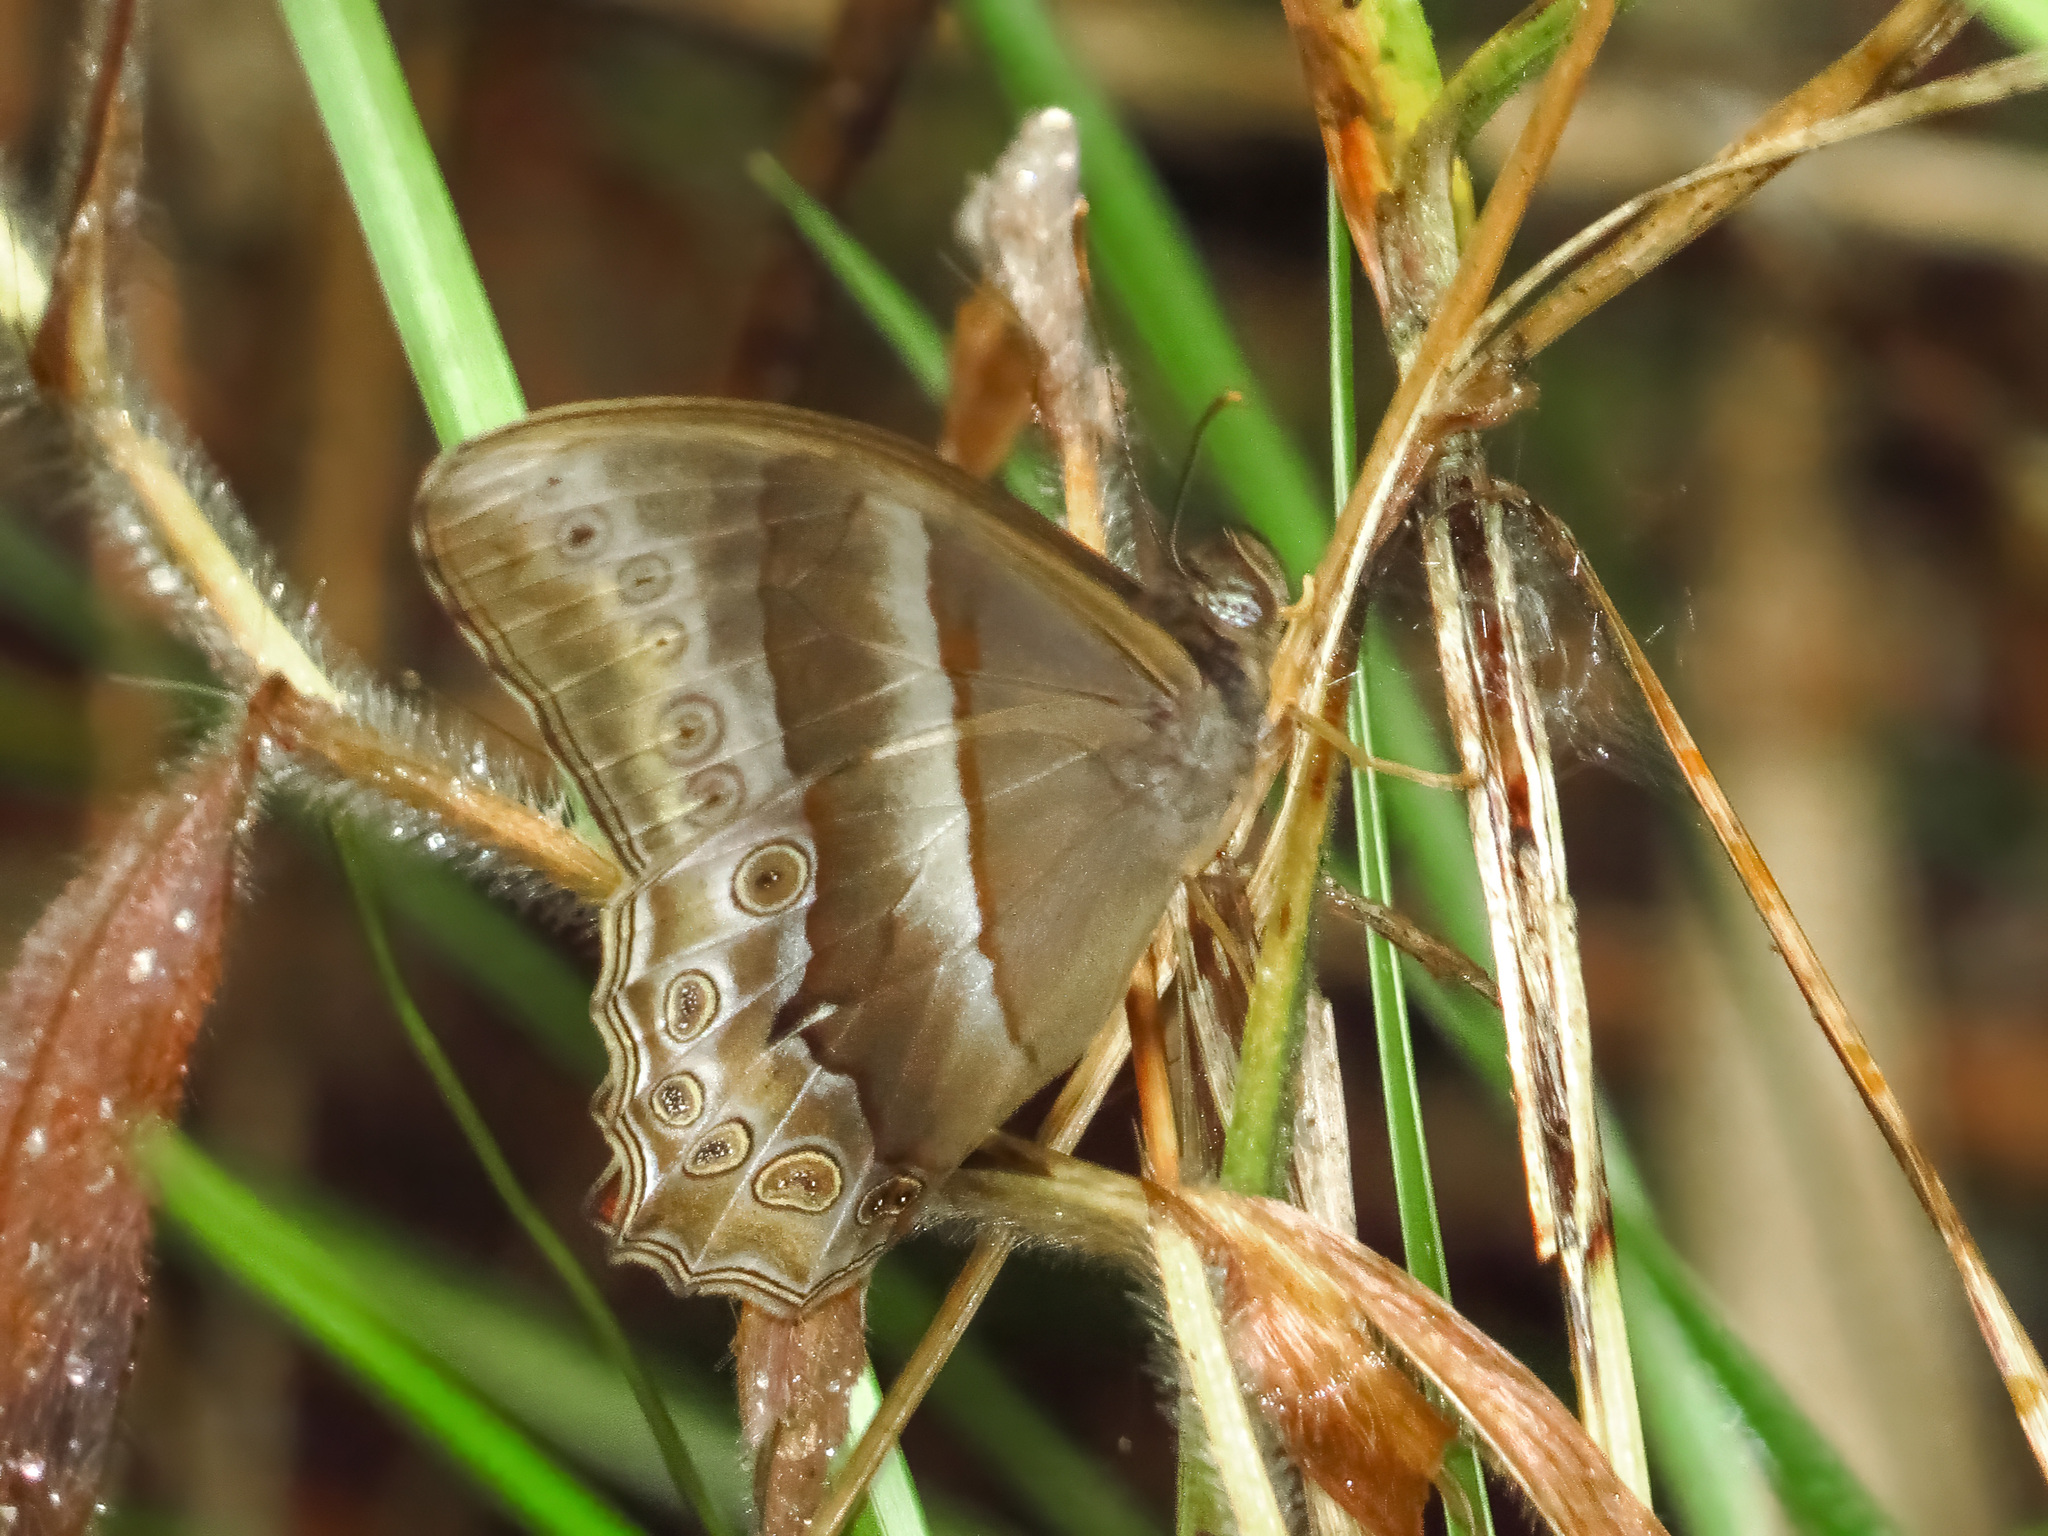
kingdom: Animalia
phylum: Arthropoda
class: Insecta
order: Lepidoptera
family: Nymphalidae
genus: Lethe
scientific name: Lethe mekara
